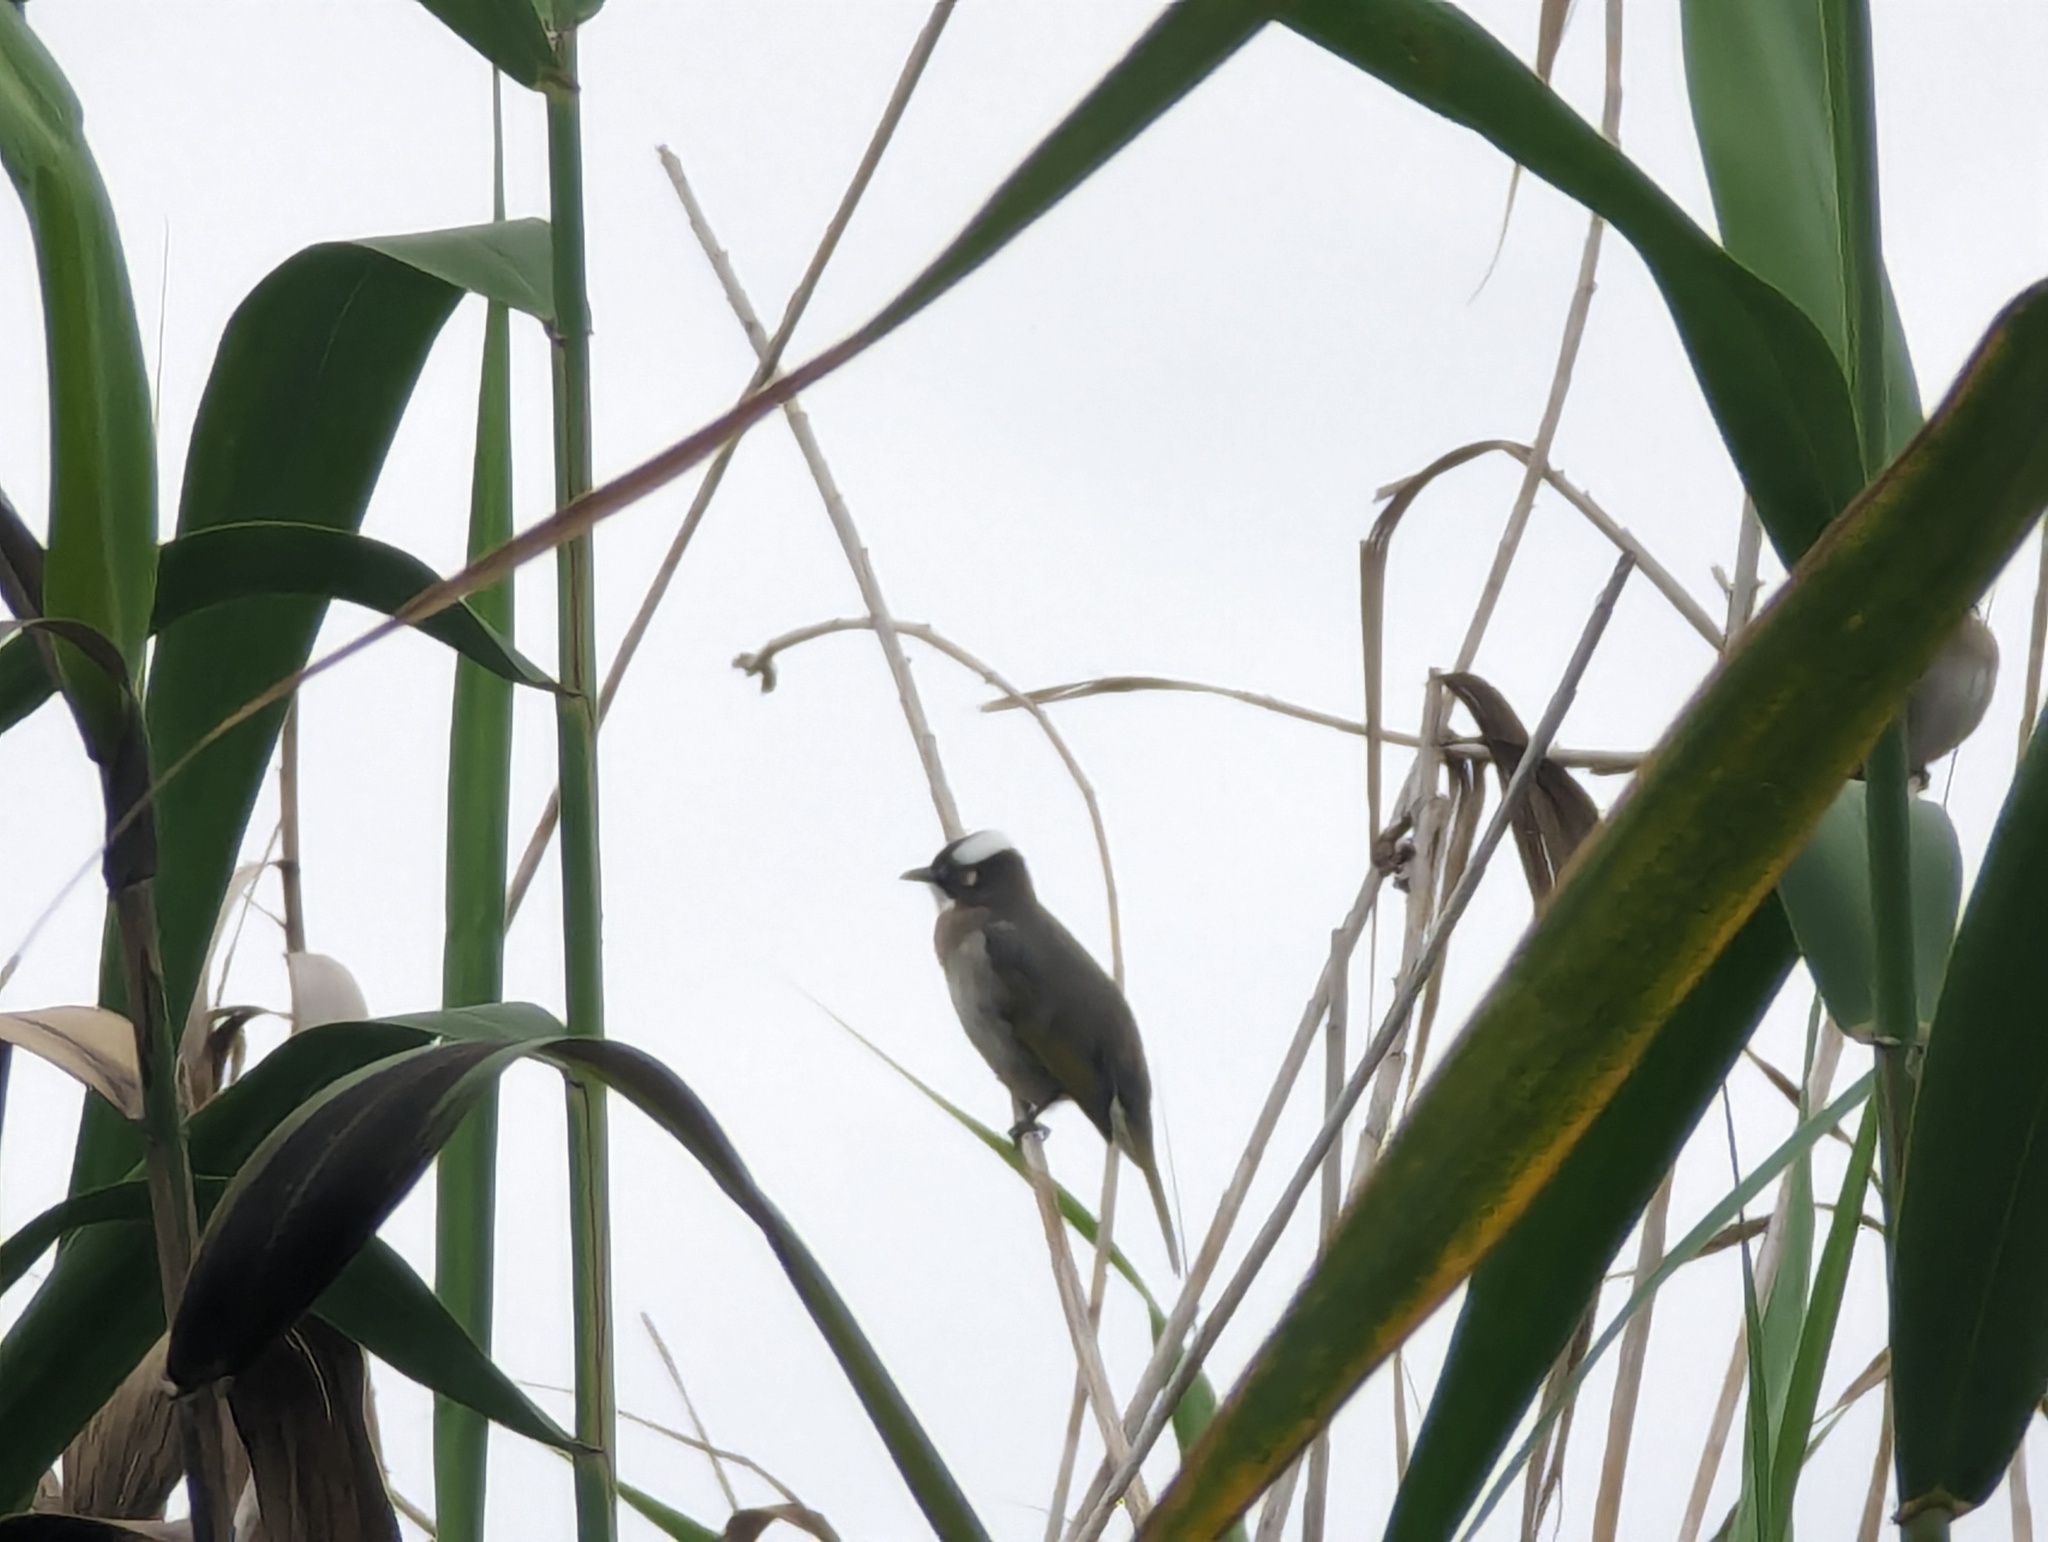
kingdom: Animalia
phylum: Chordata
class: Aves
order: Passeriformes
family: Pycnonotidae
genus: Pycnonotus
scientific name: Pycnonotus sinensis
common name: Light-vented bulbul
